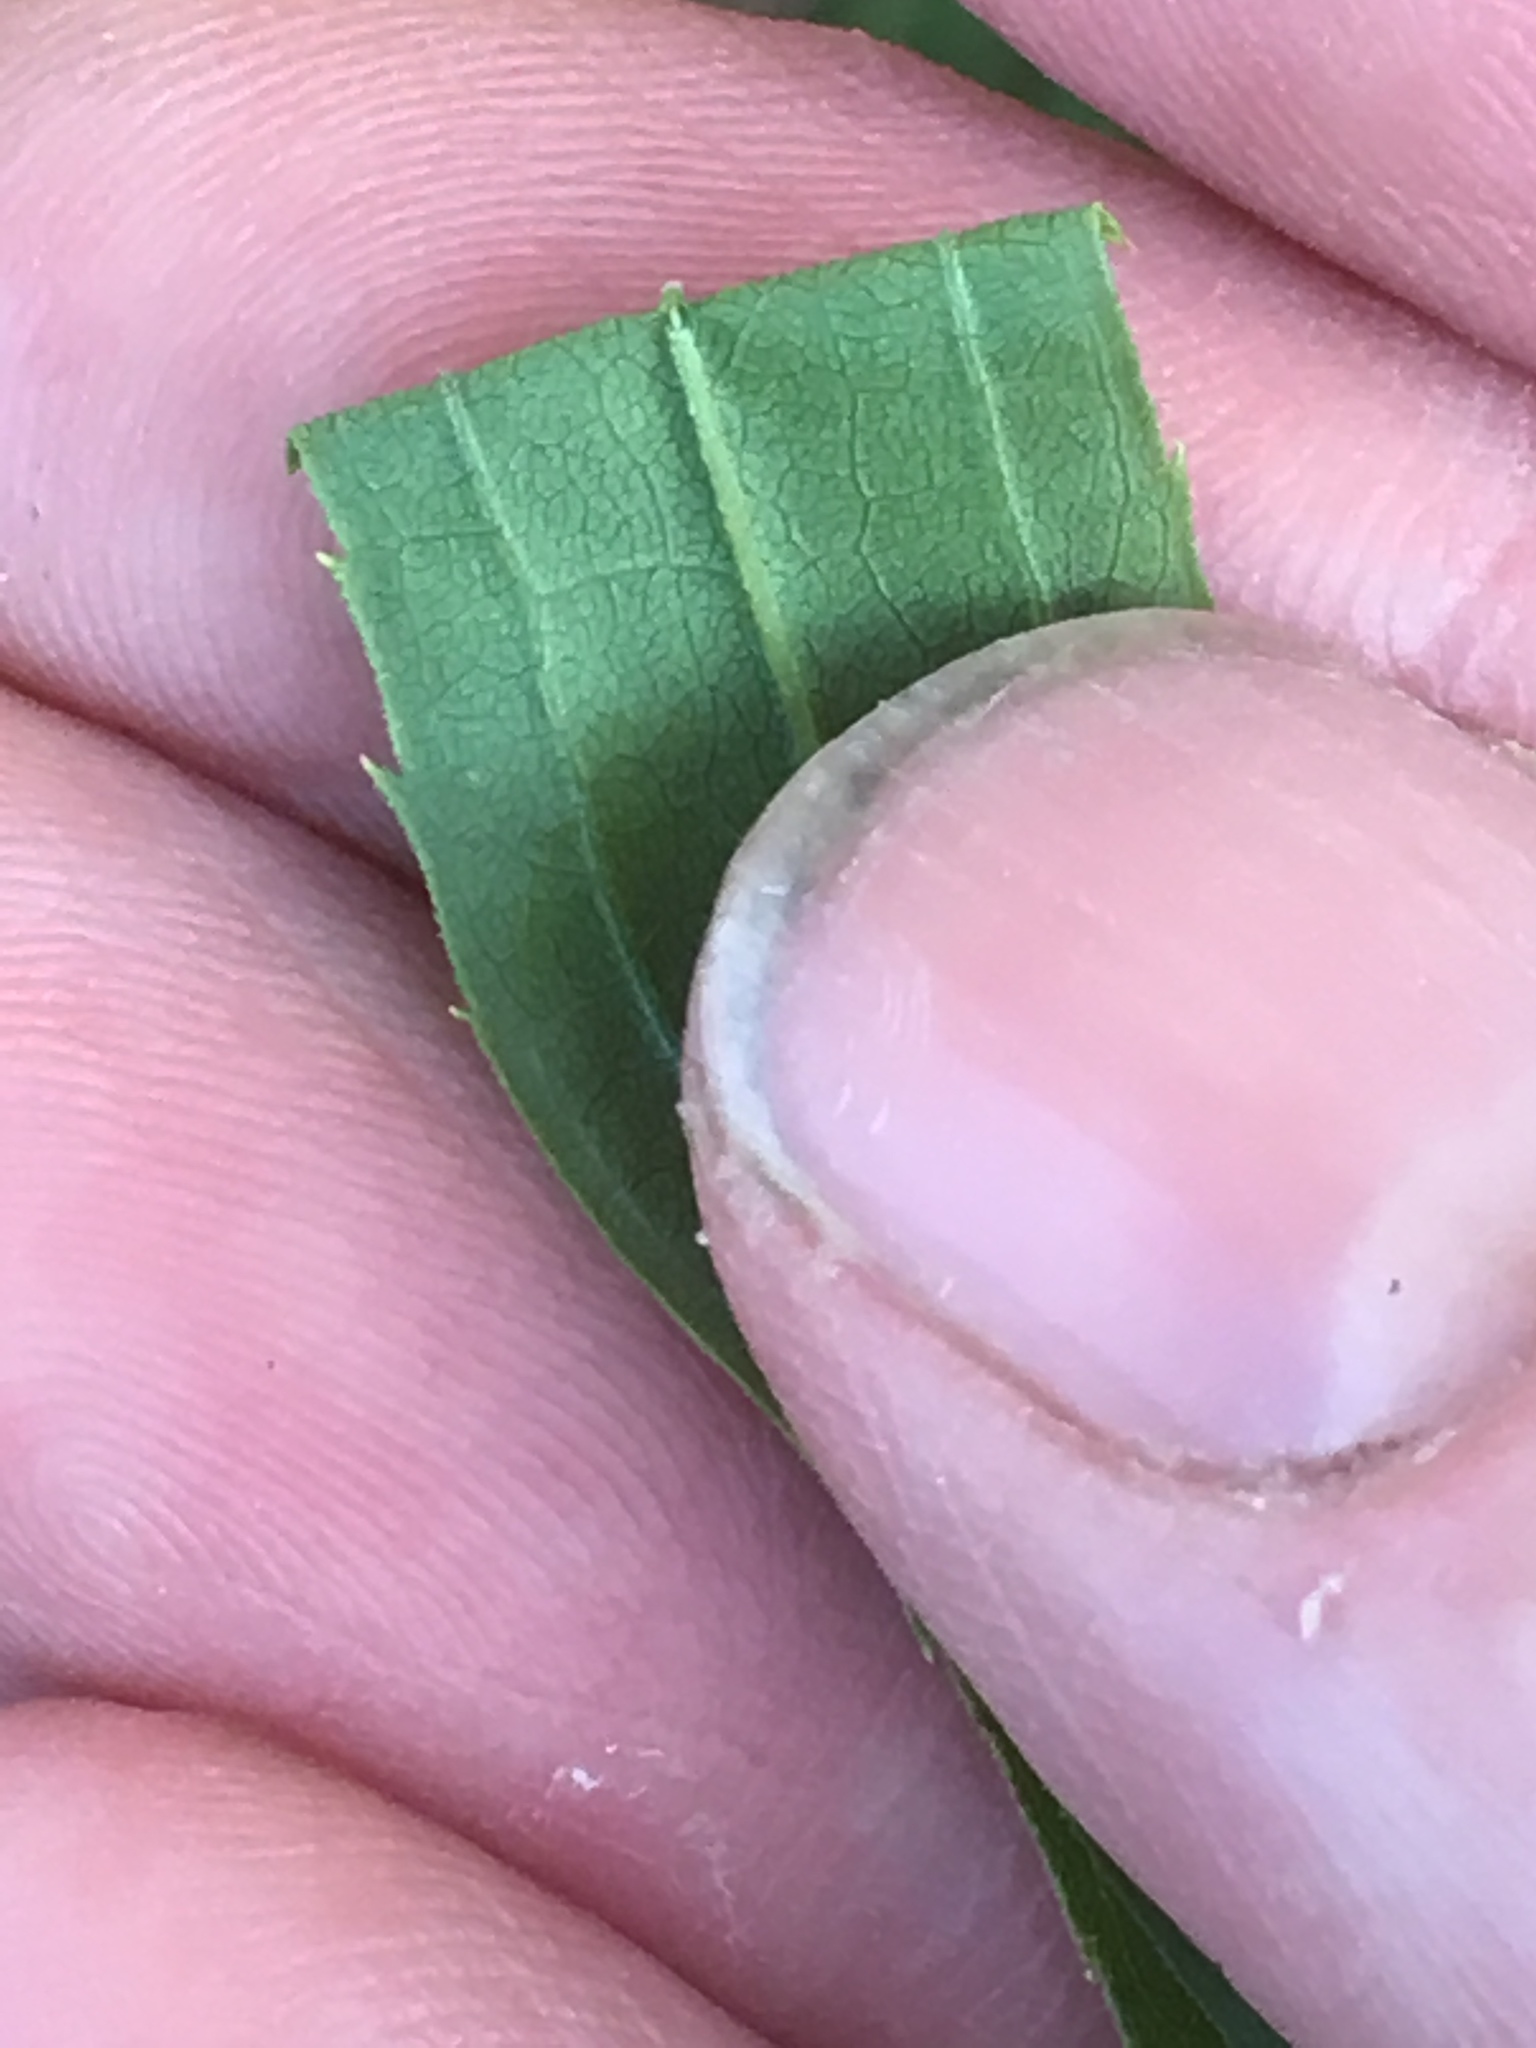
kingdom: Plantae
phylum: Tracheophyta
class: Magnoliopsida
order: Asterales
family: Asteraceae
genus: Solidago
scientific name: Solidago canadensis
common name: Canada goldenrod
